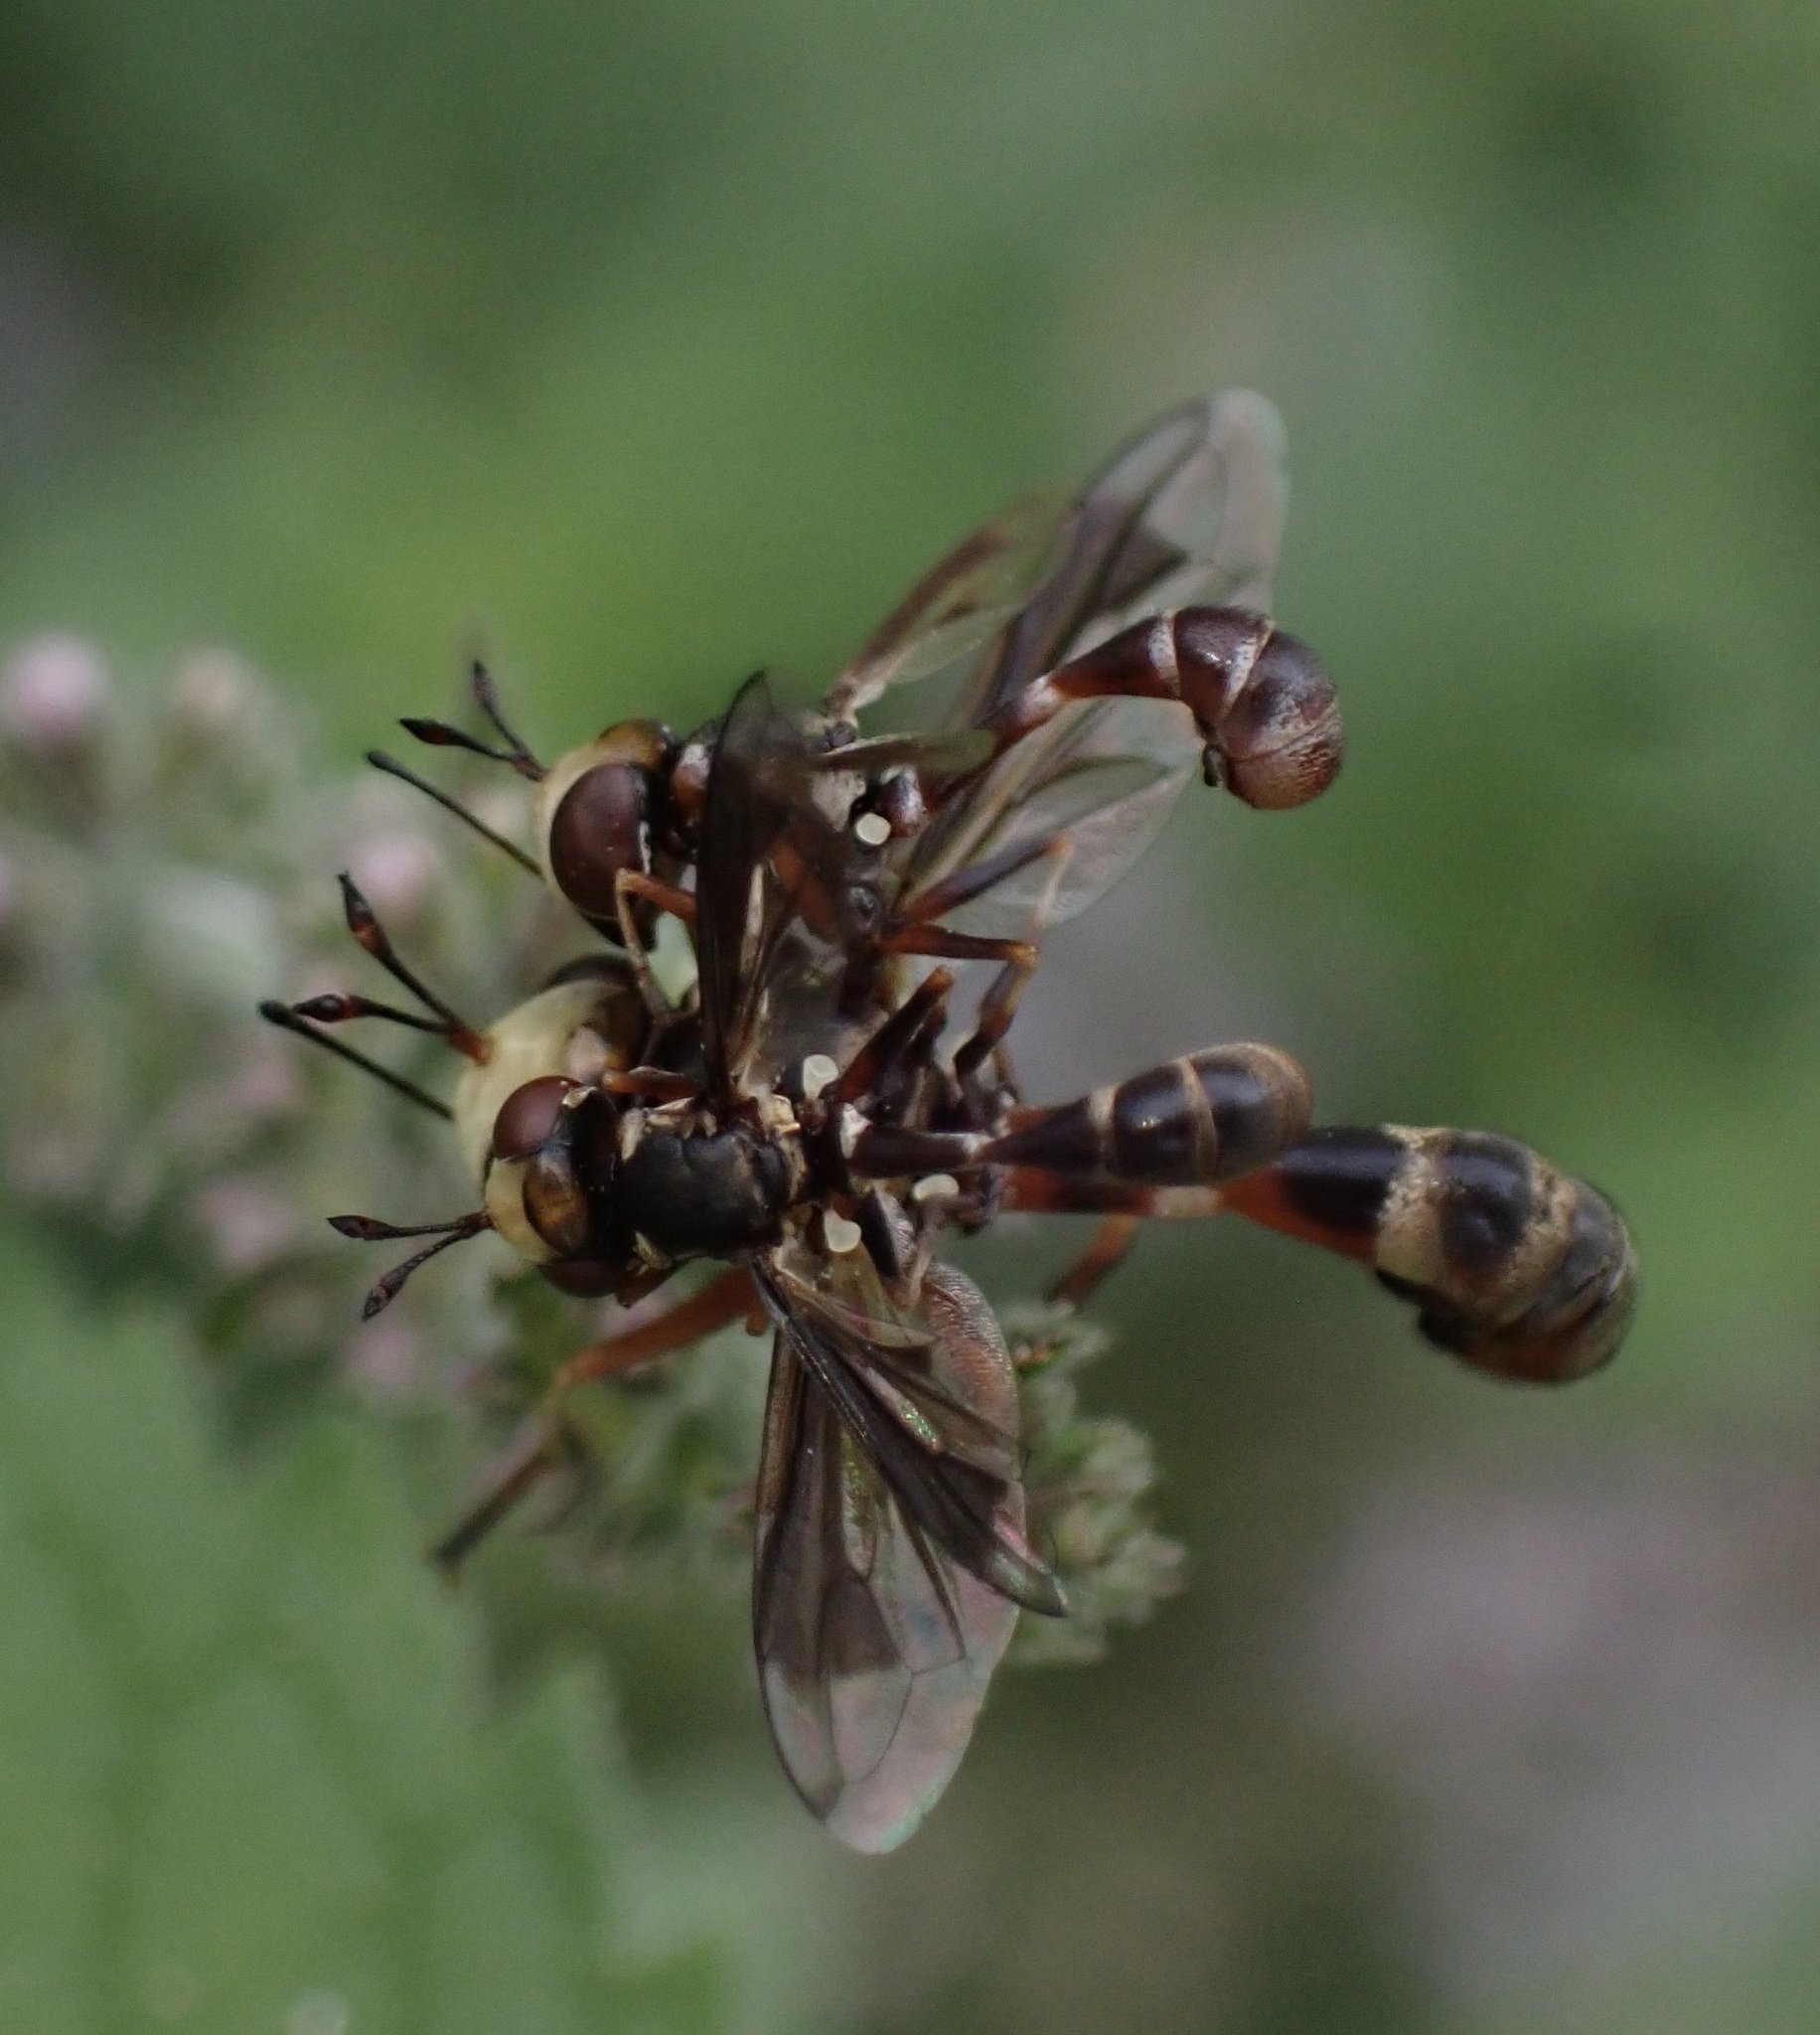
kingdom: Animalia
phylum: Arthropoda
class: Insecta
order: Diptera
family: Conopidae
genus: Physocephala
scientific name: Physocephala vittata
